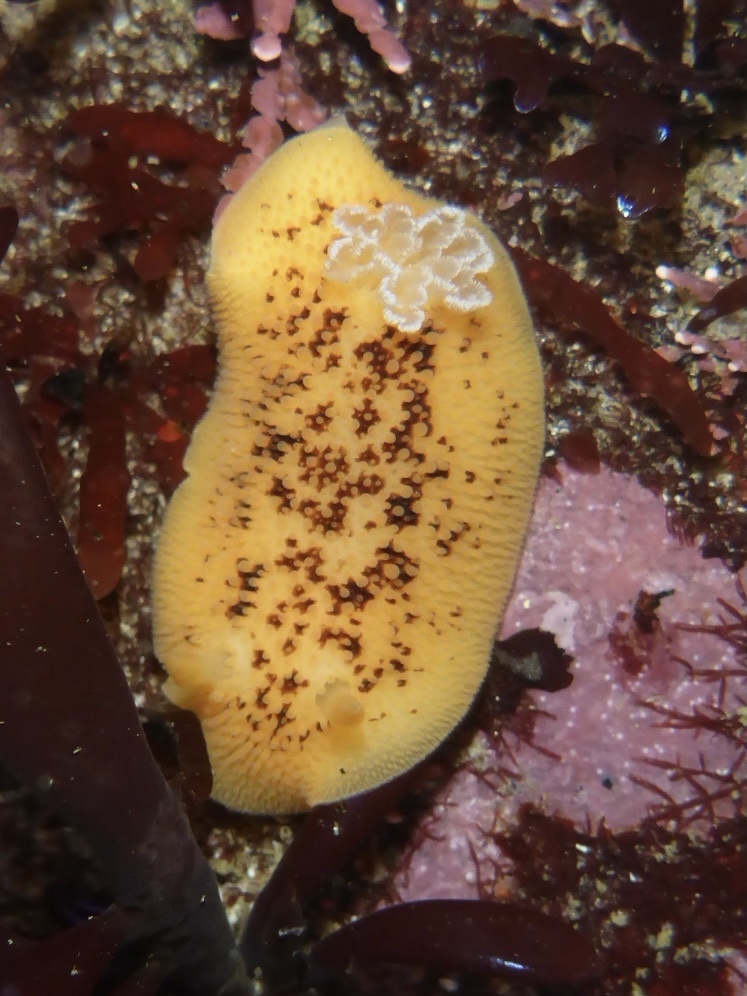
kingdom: Animalia
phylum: Mollusca
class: Gastropoda
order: Nudibranchia
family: Discodorididae
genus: Peltodoris
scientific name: Peltodoris nobilis
